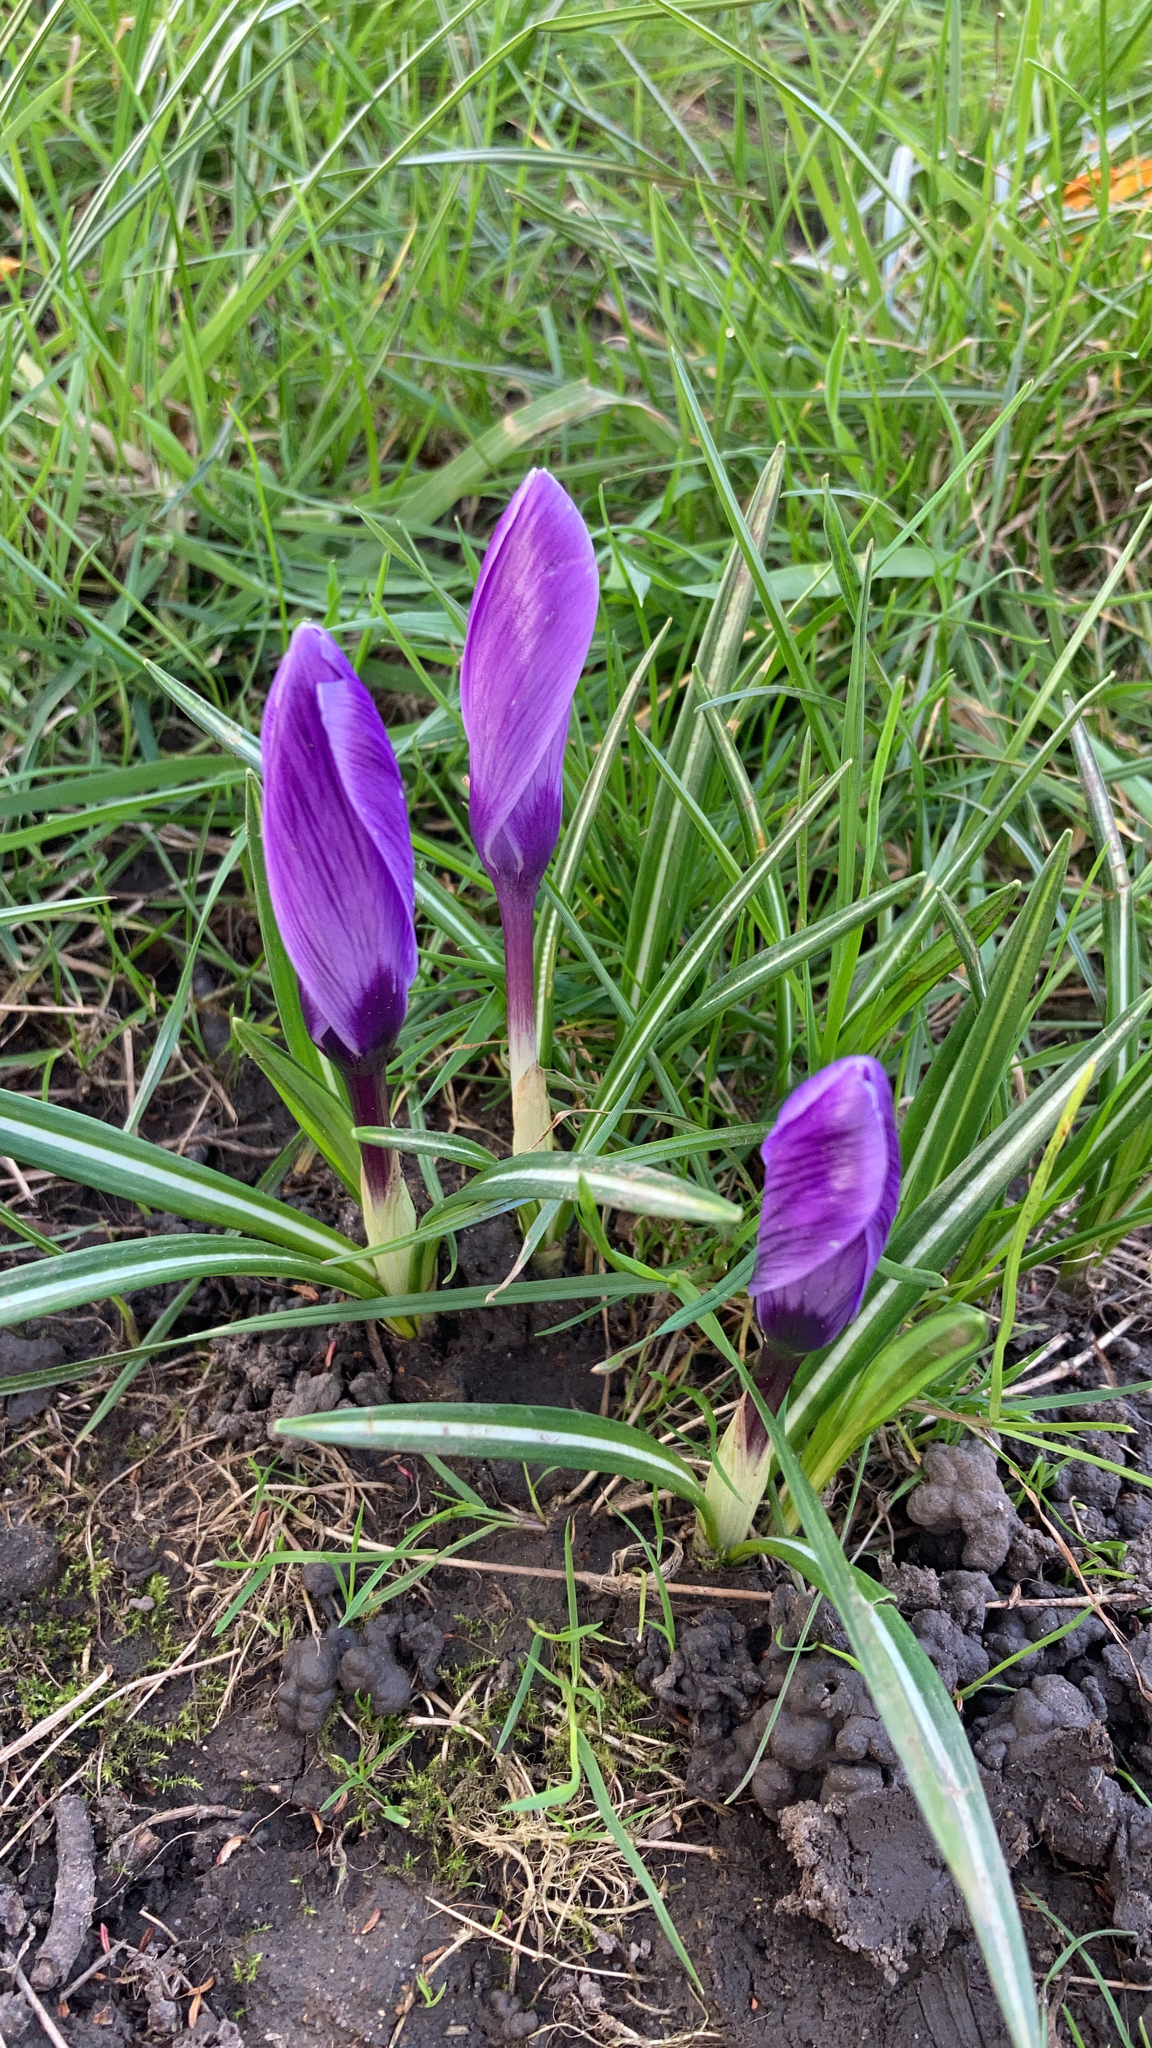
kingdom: Plantae
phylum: Tracheophyta
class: Liliopsida
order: Asparagales
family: Iridaceae
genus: Crocus
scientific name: Crocus
